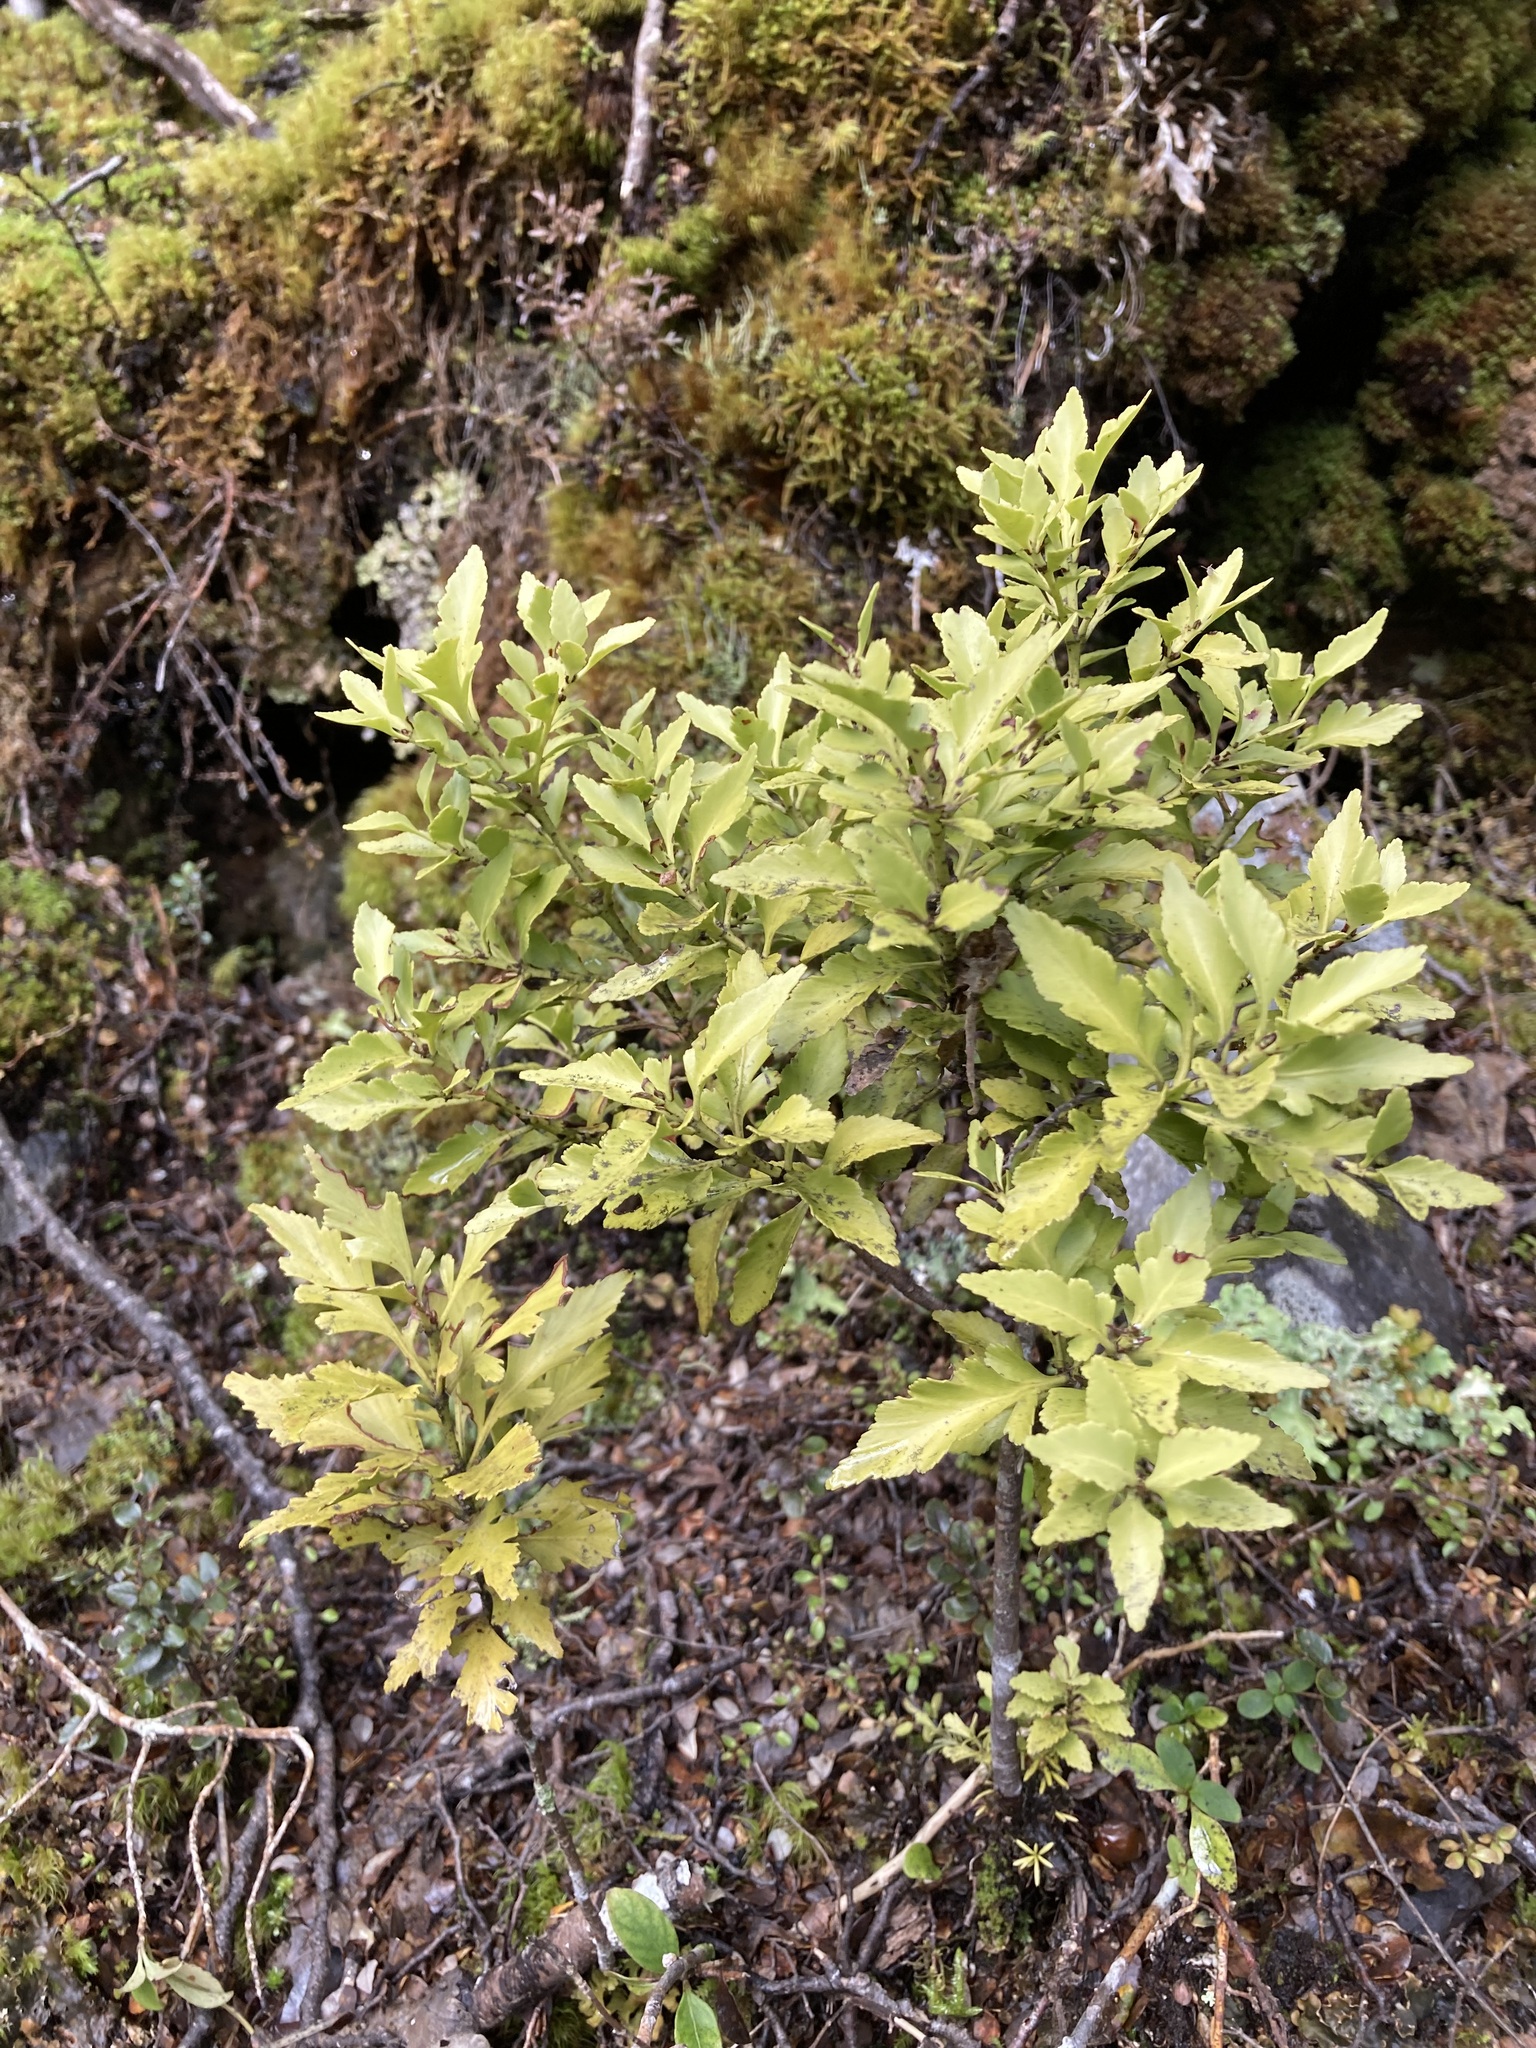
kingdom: Plantae
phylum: Tracheophyta
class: Pinopsida
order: Pinales
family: Phyllocladaceae
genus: Phyllocladus
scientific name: Phyllocladus trichomanoides
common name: Celery pine
